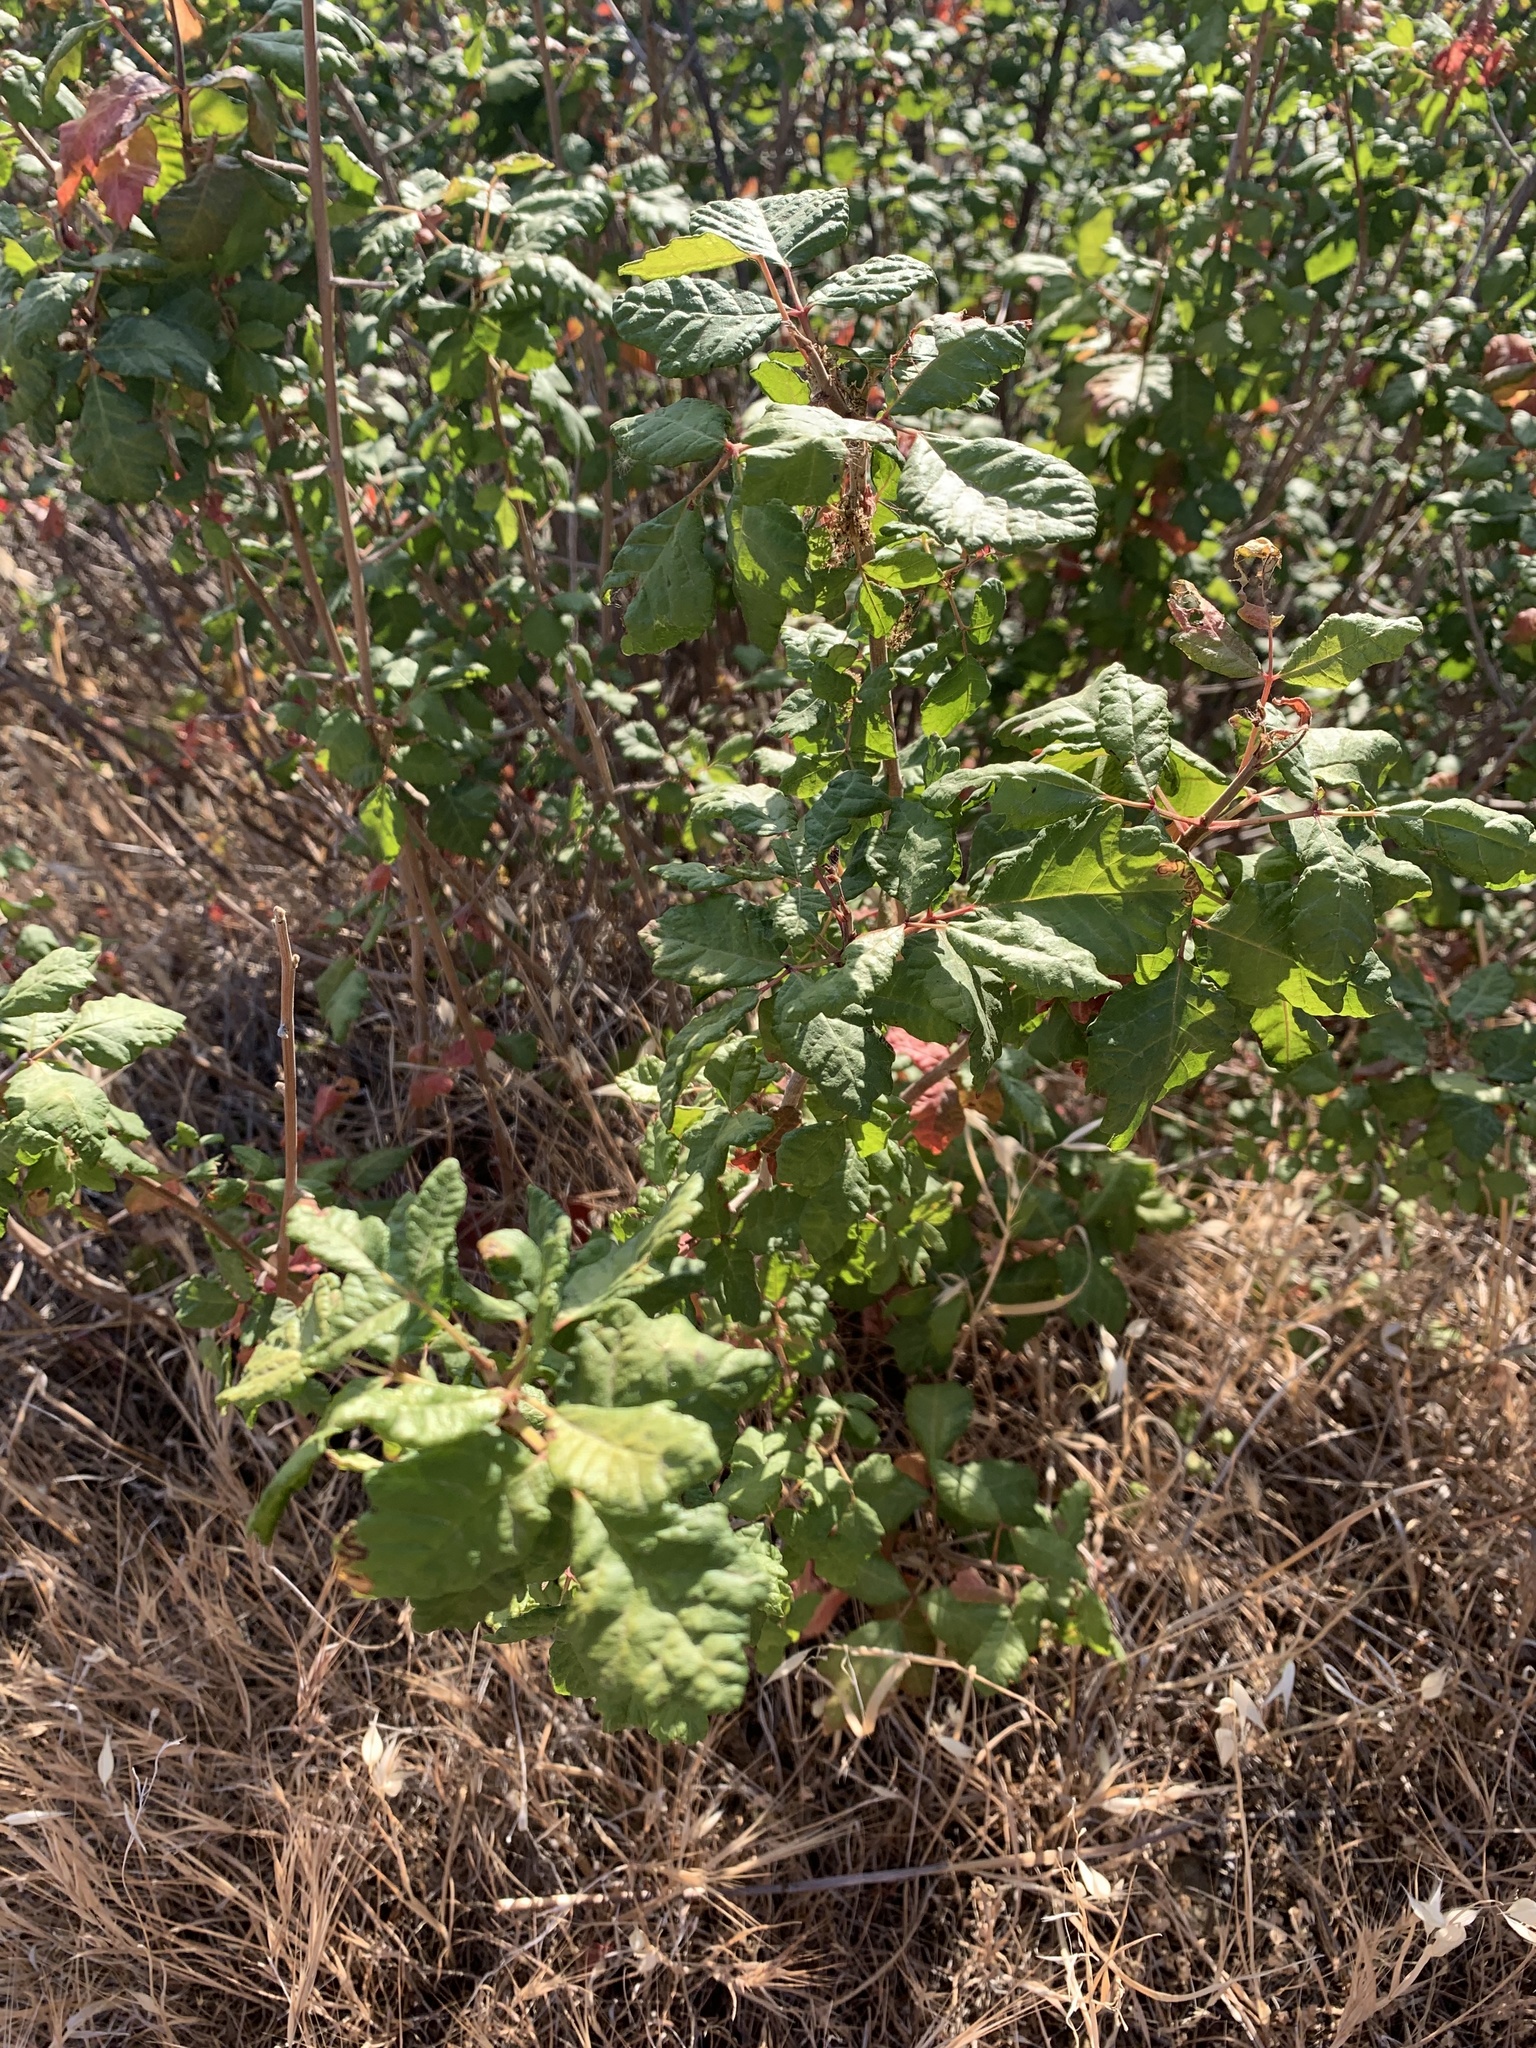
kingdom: Plantae
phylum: Tracheophyta
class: Magnoliopsida
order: Sapindales
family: Anacardiaceae
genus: Toxicodendron
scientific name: Toxicodendron diversilobum
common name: Pacific poison-oak
